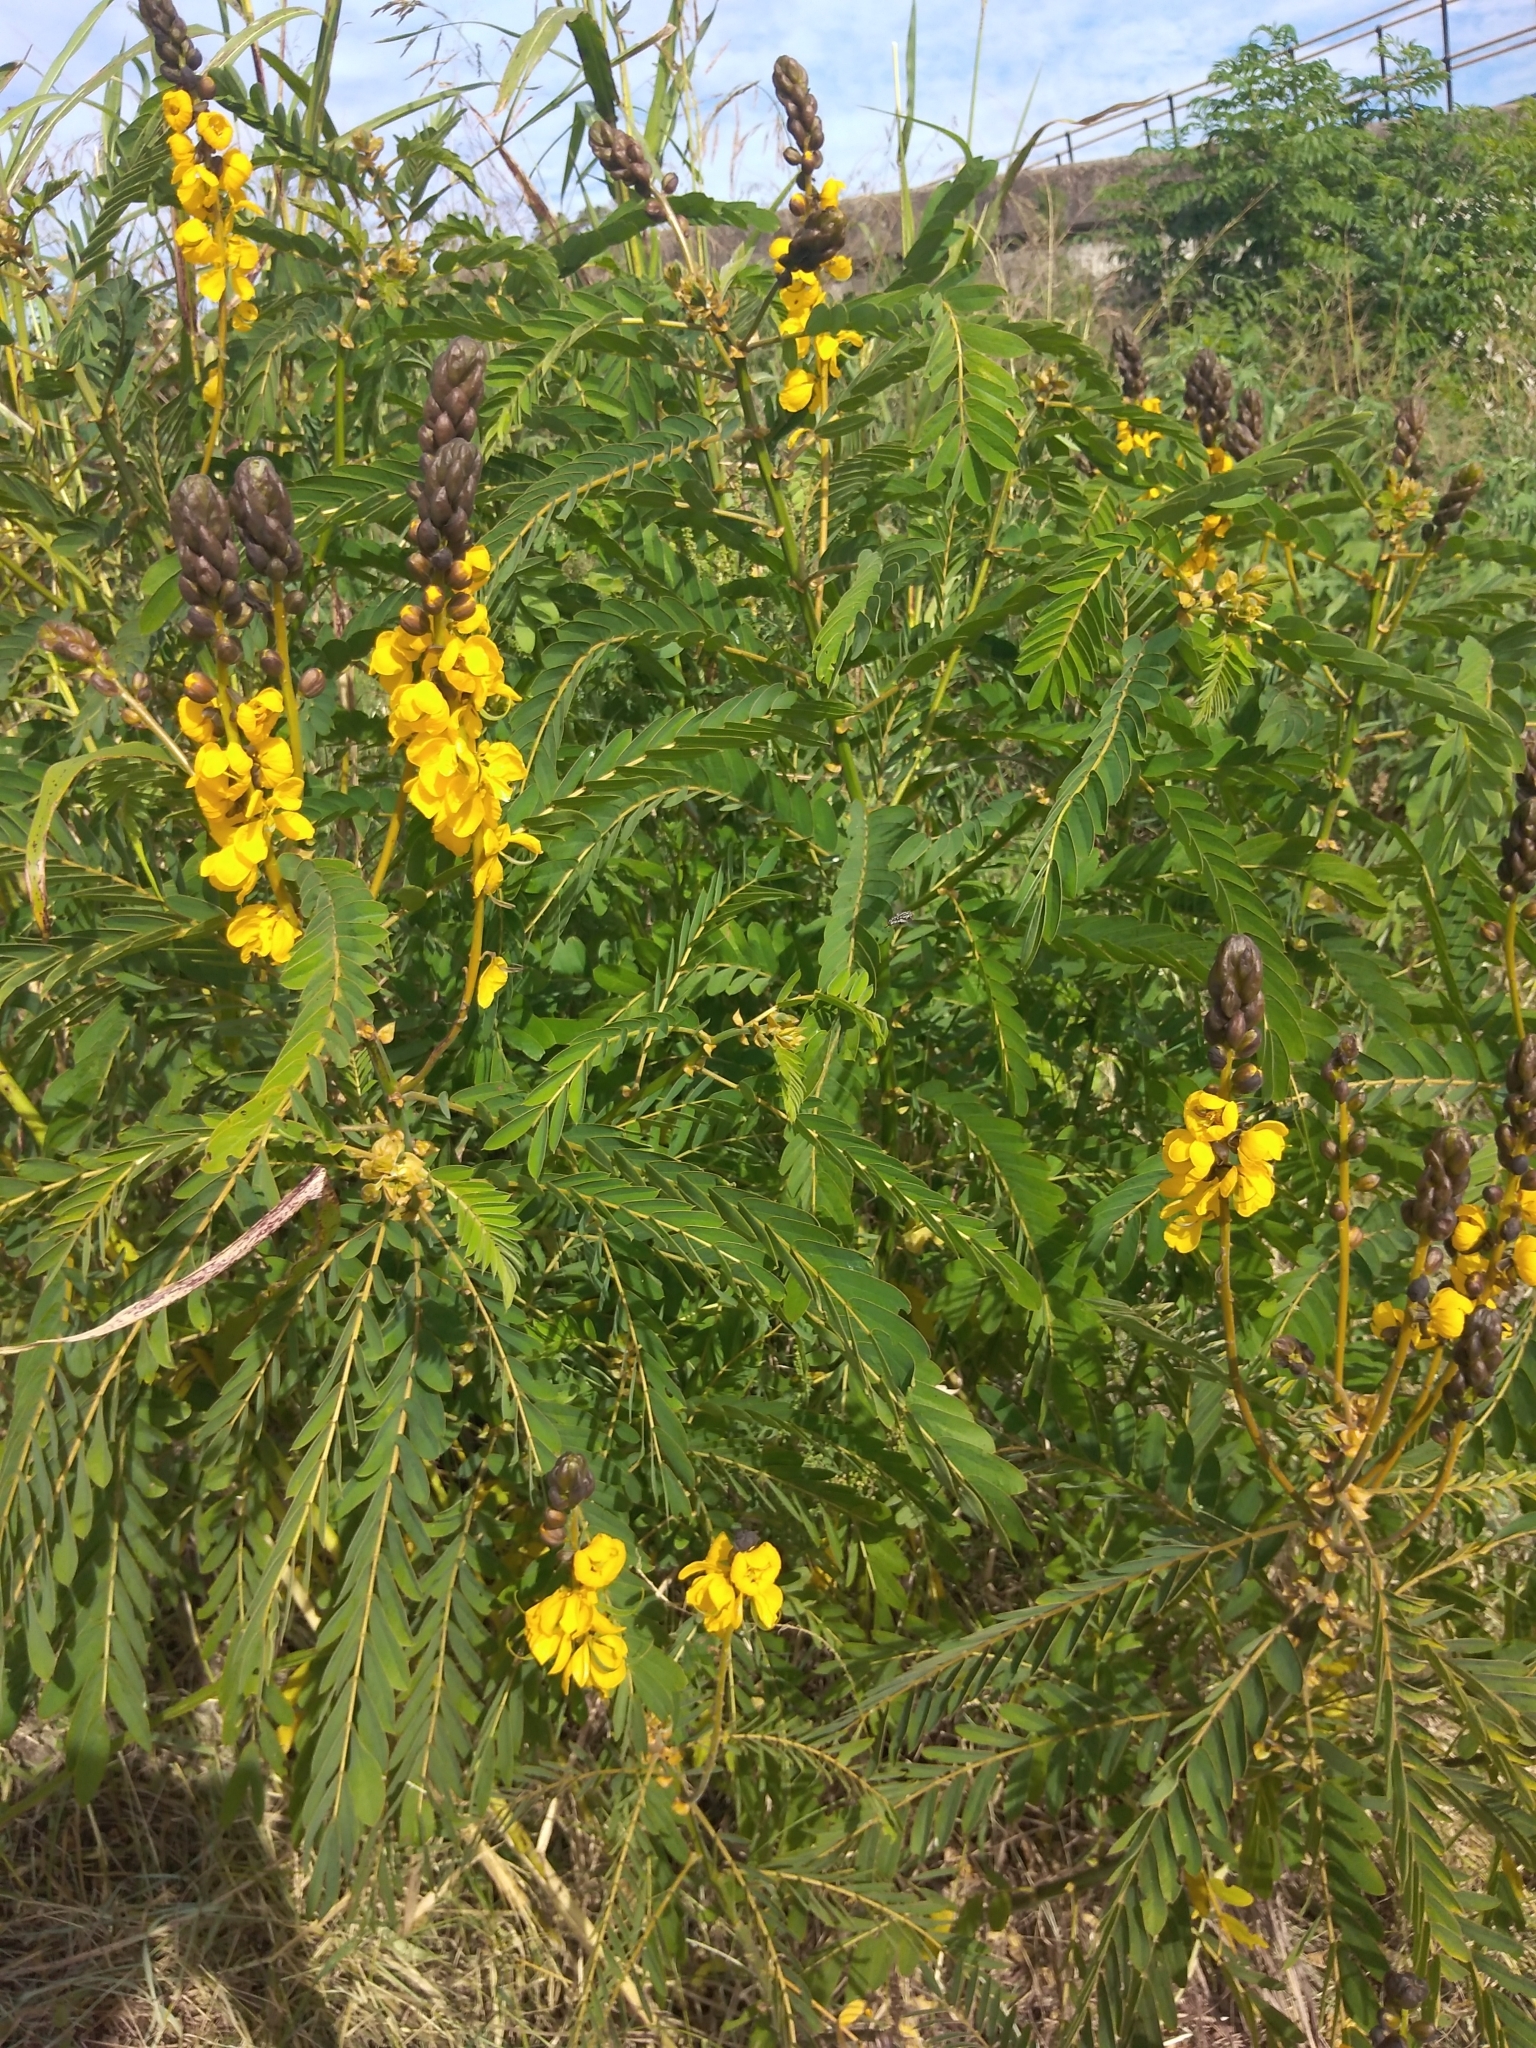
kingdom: Plantae
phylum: Tracheophyta
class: Magnoliopsida
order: Fabales
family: Fabaceae
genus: Senna
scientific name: Senna didymobotrya
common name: African senna
